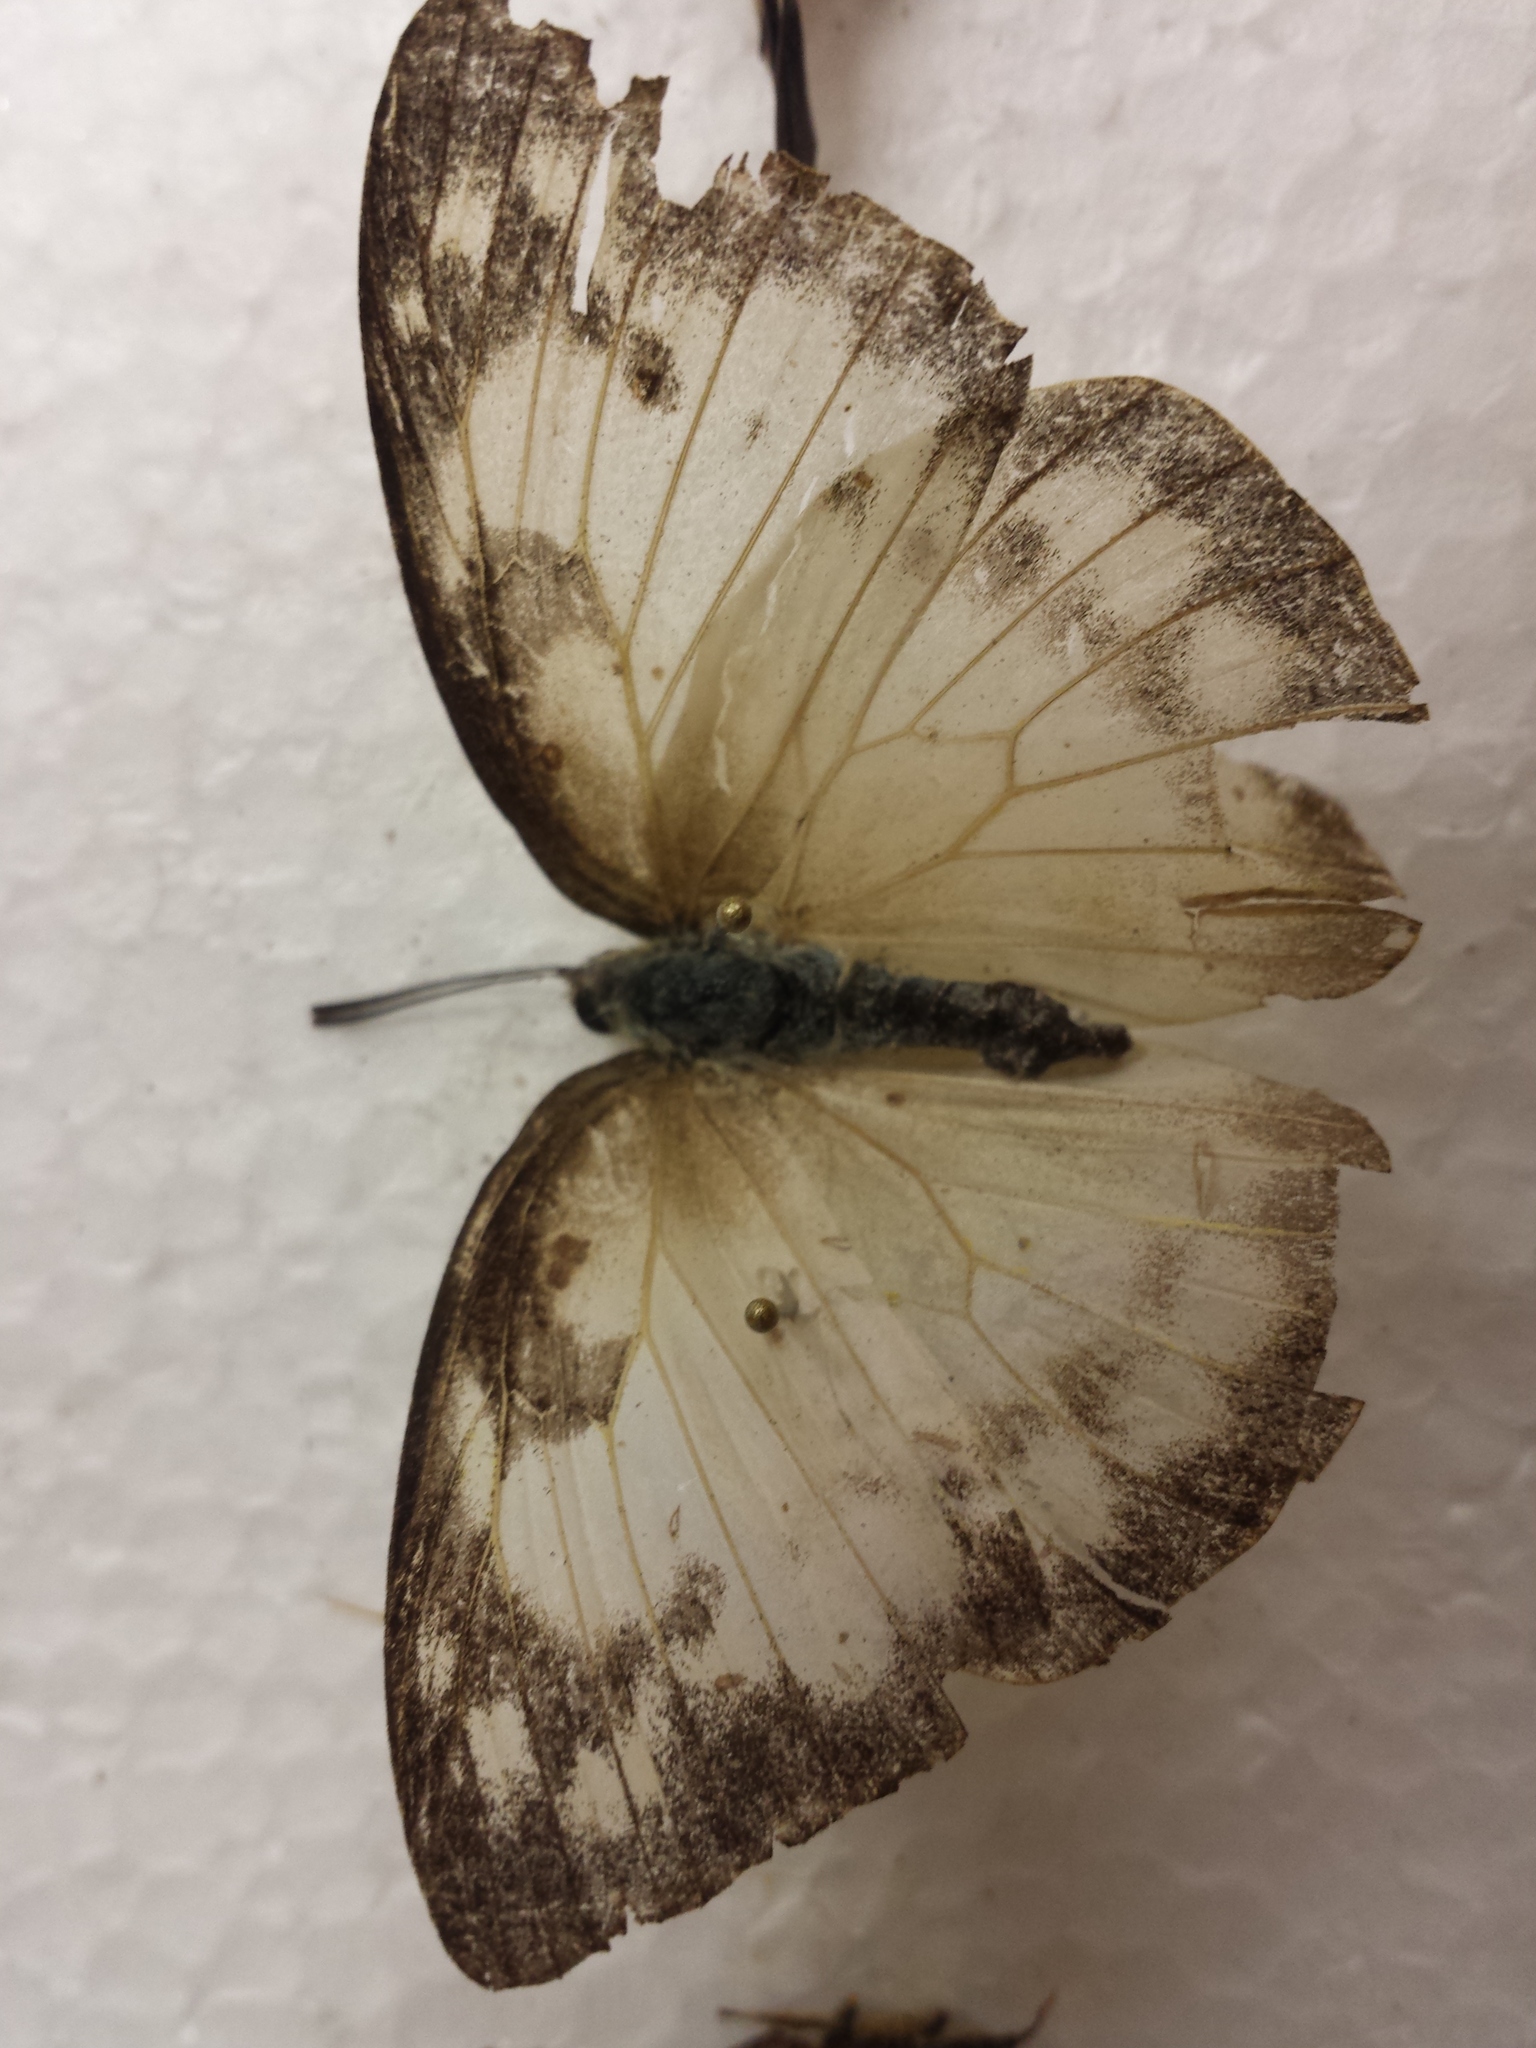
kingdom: Animalia
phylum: Arthropoda
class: Insecta
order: Lepidoptera
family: Pieridae
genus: Catopsilia
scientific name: Catopsilia pomona
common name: Common emigrant
